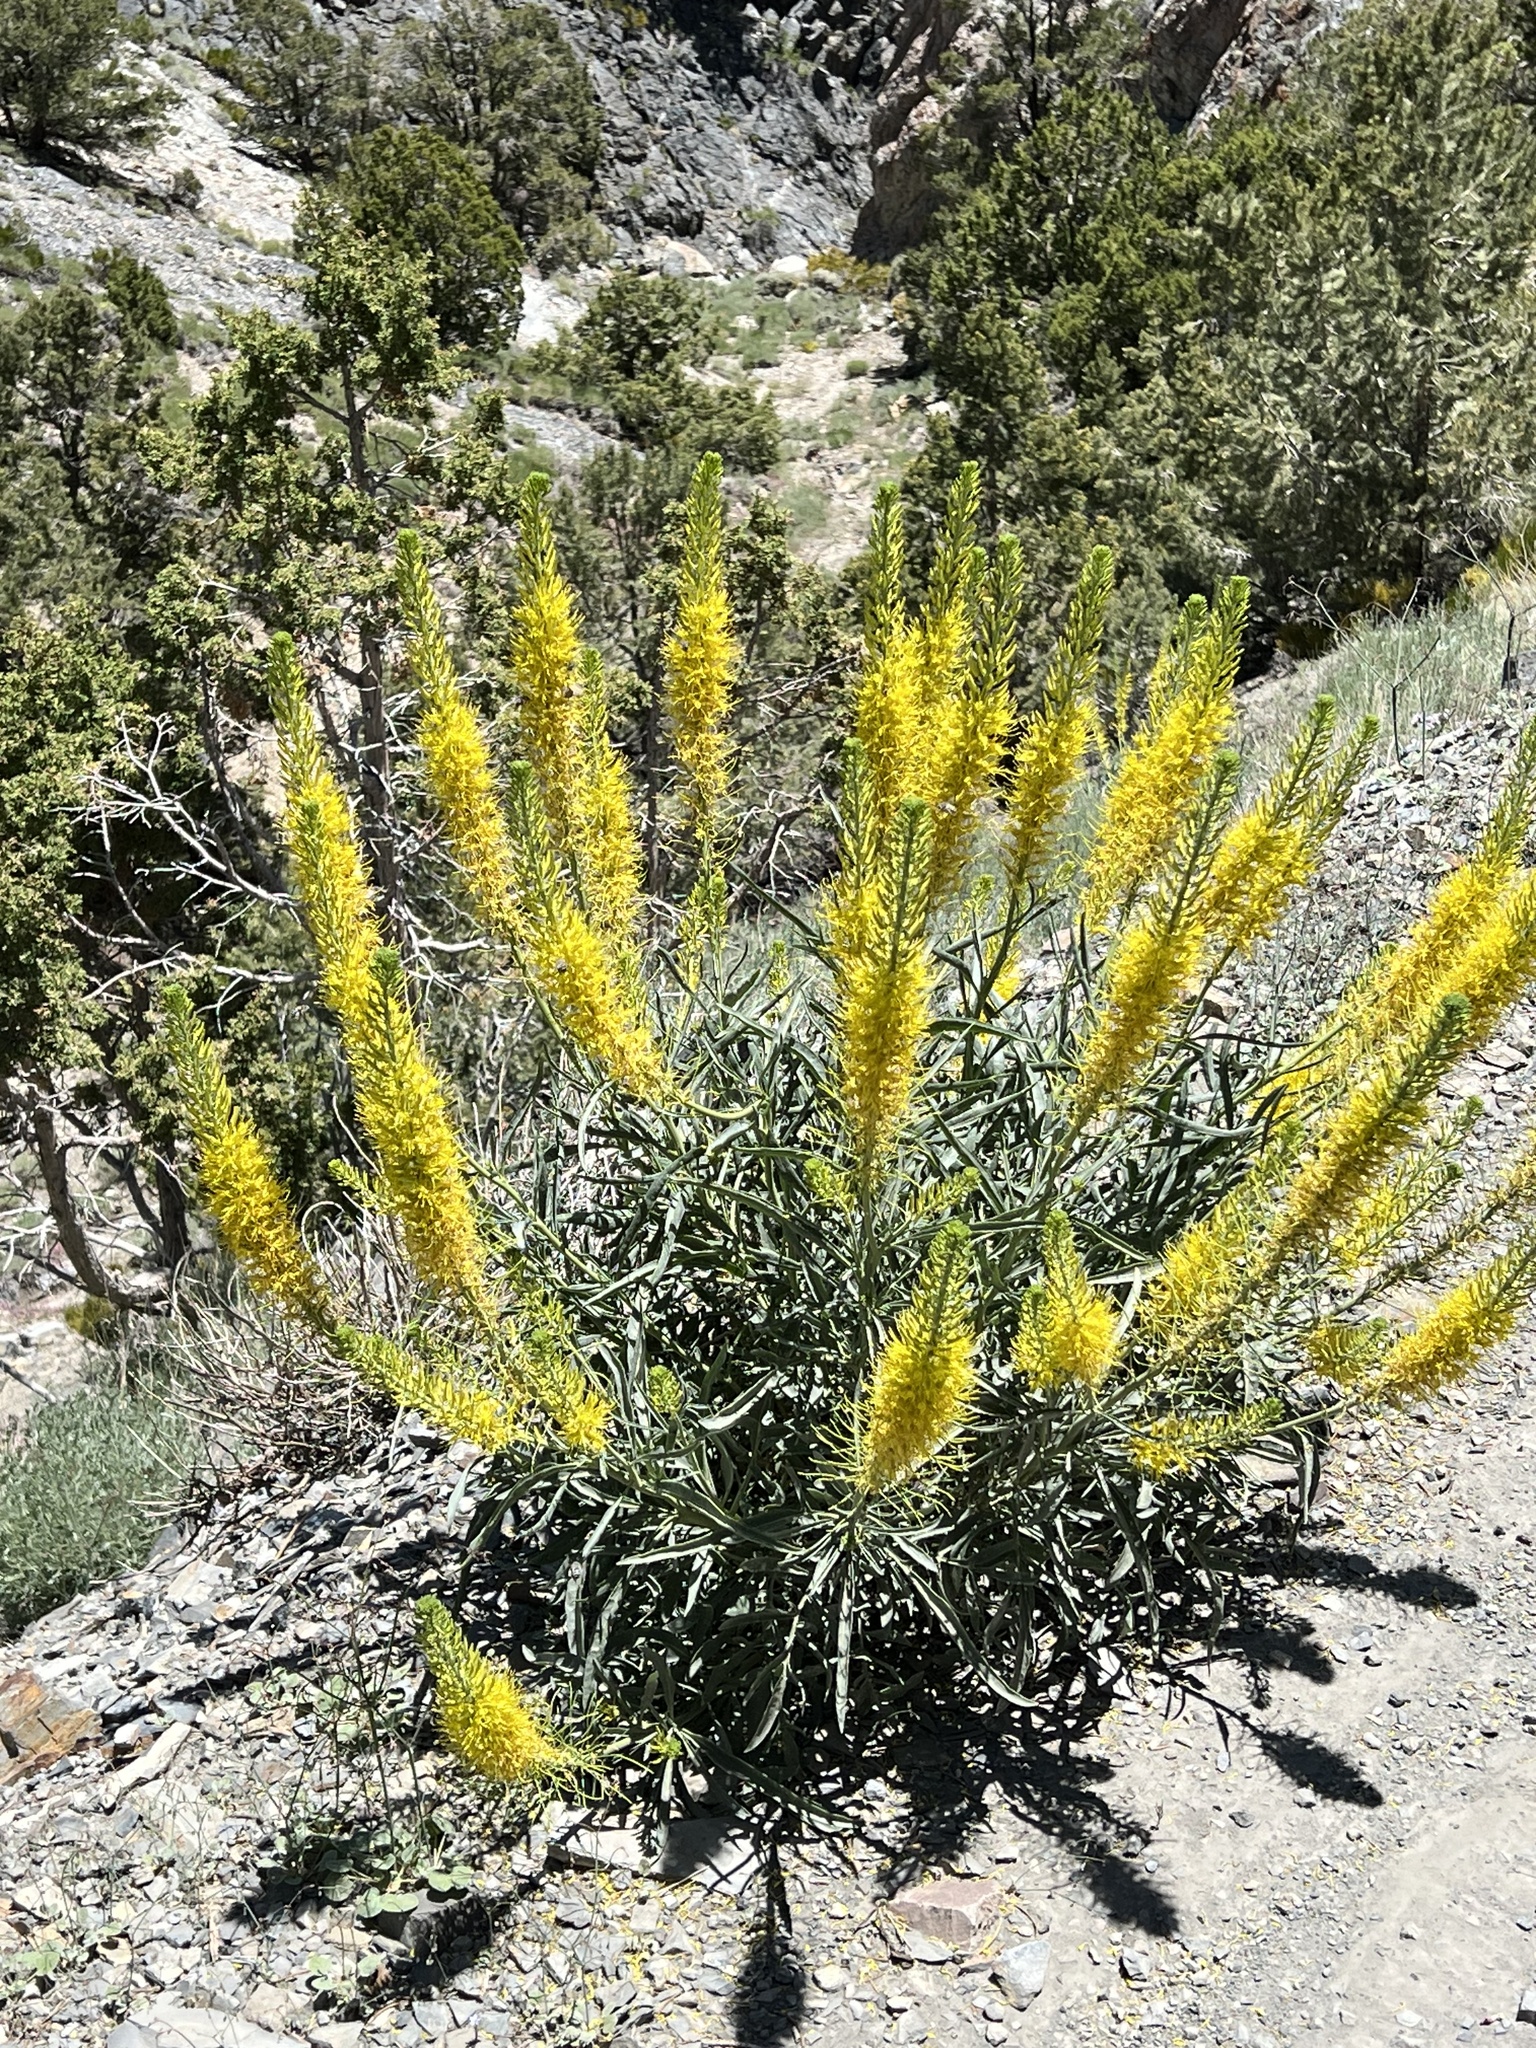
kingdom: Plantae
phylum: Tracheophyta
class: Magnoliopsida
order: Brassicales
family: Brassicaceae
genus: Stanleya
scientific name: Stanleya pinnata
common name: Prince's-plume
